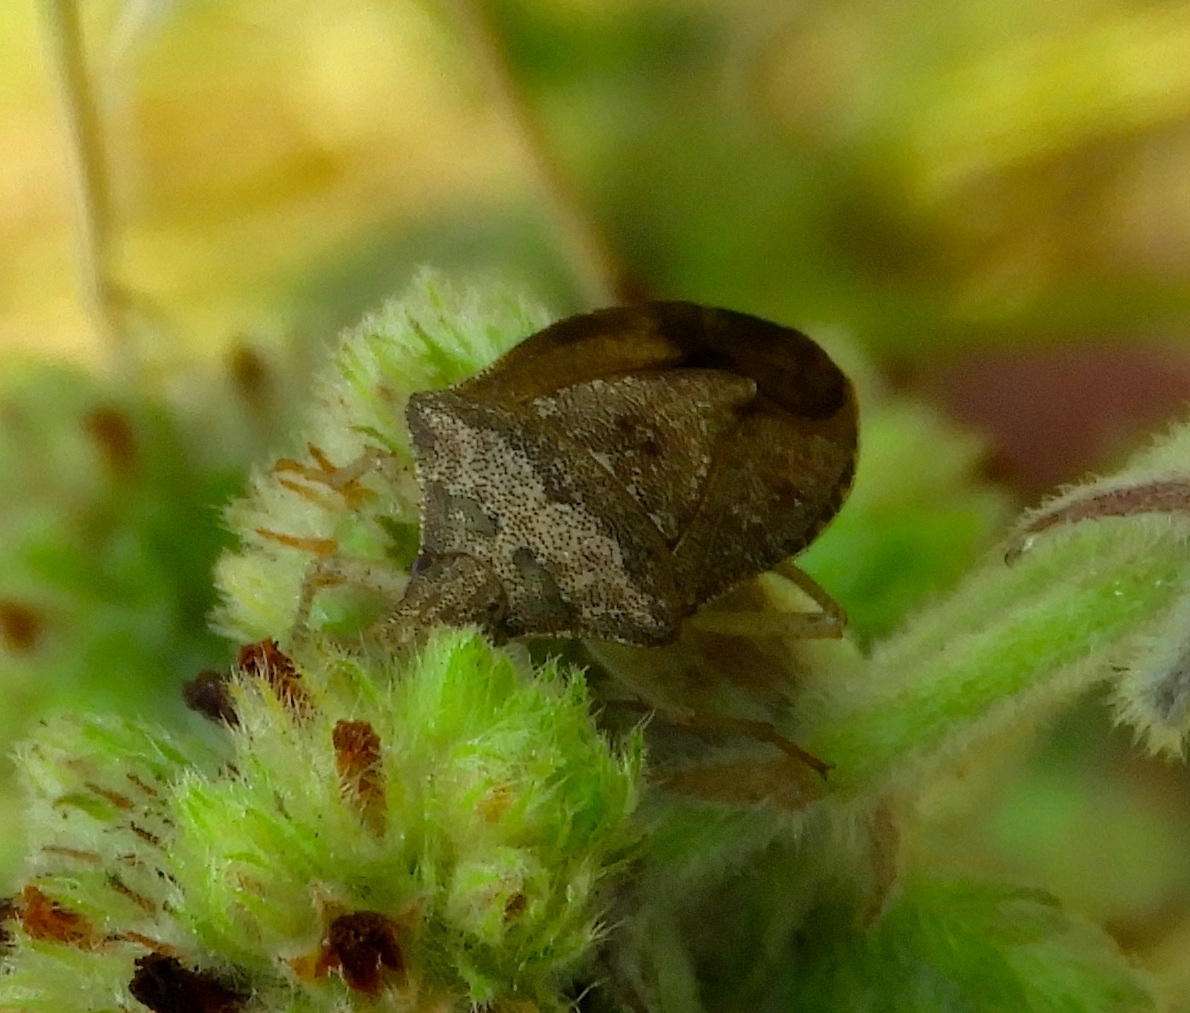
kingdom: Animalia
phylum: Arthropoda
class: Insecta
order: Hemiptera
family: Pentatomidae
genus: Euschistus
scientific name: Euschistus
